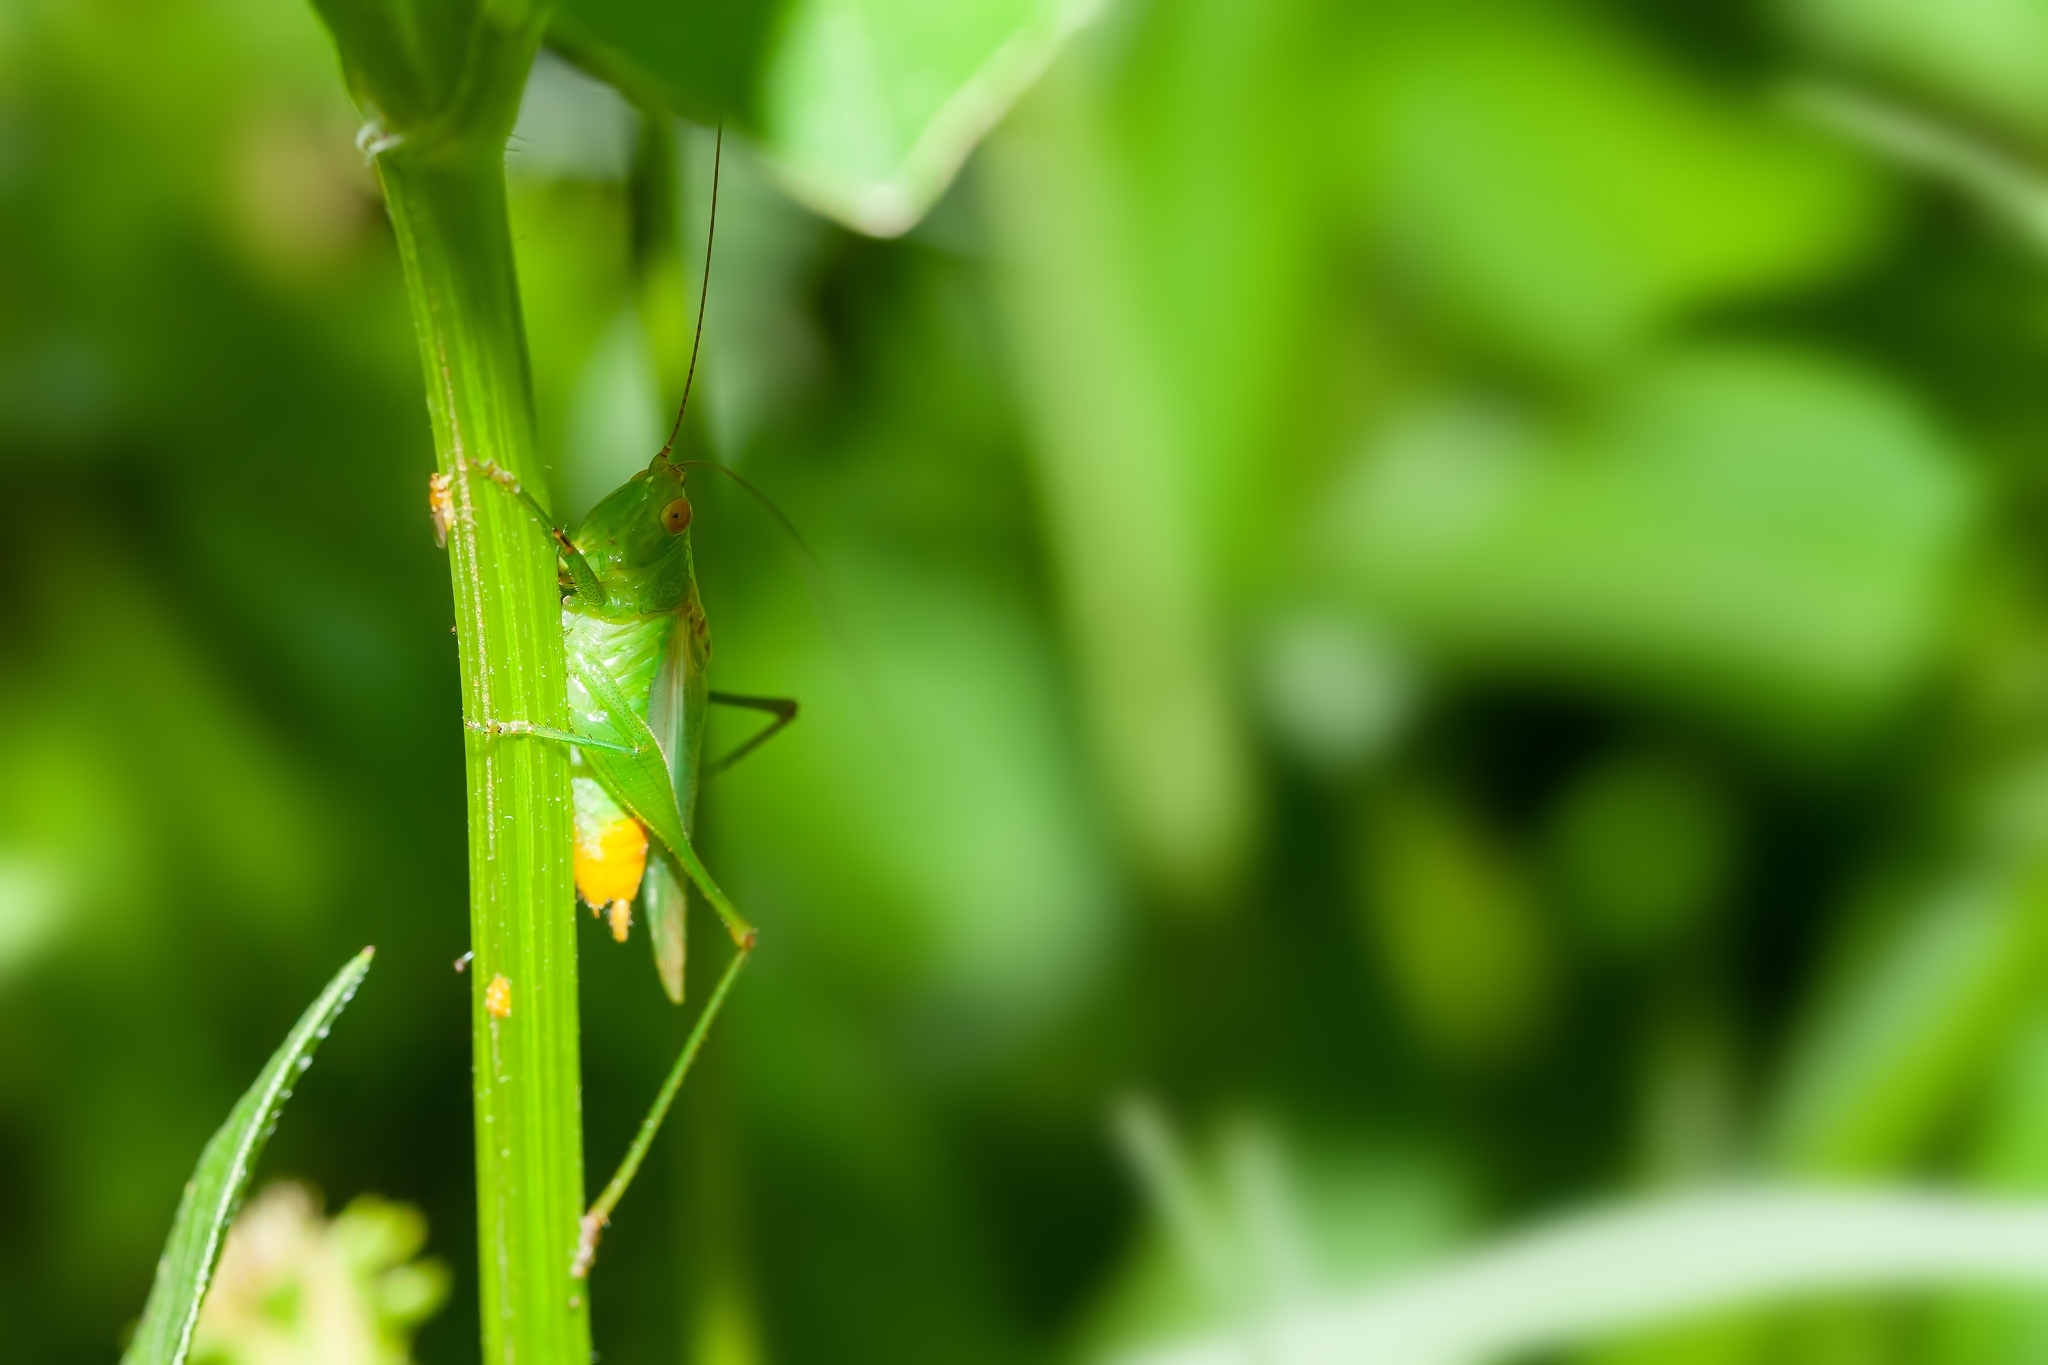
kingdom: Animalia
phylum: Arthropoda
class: Insecta
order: Orthoptera
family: Tettigoniidae
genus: Conocephalus
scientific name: Conocephalus cinereus
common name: Caribbean meadow katydid
